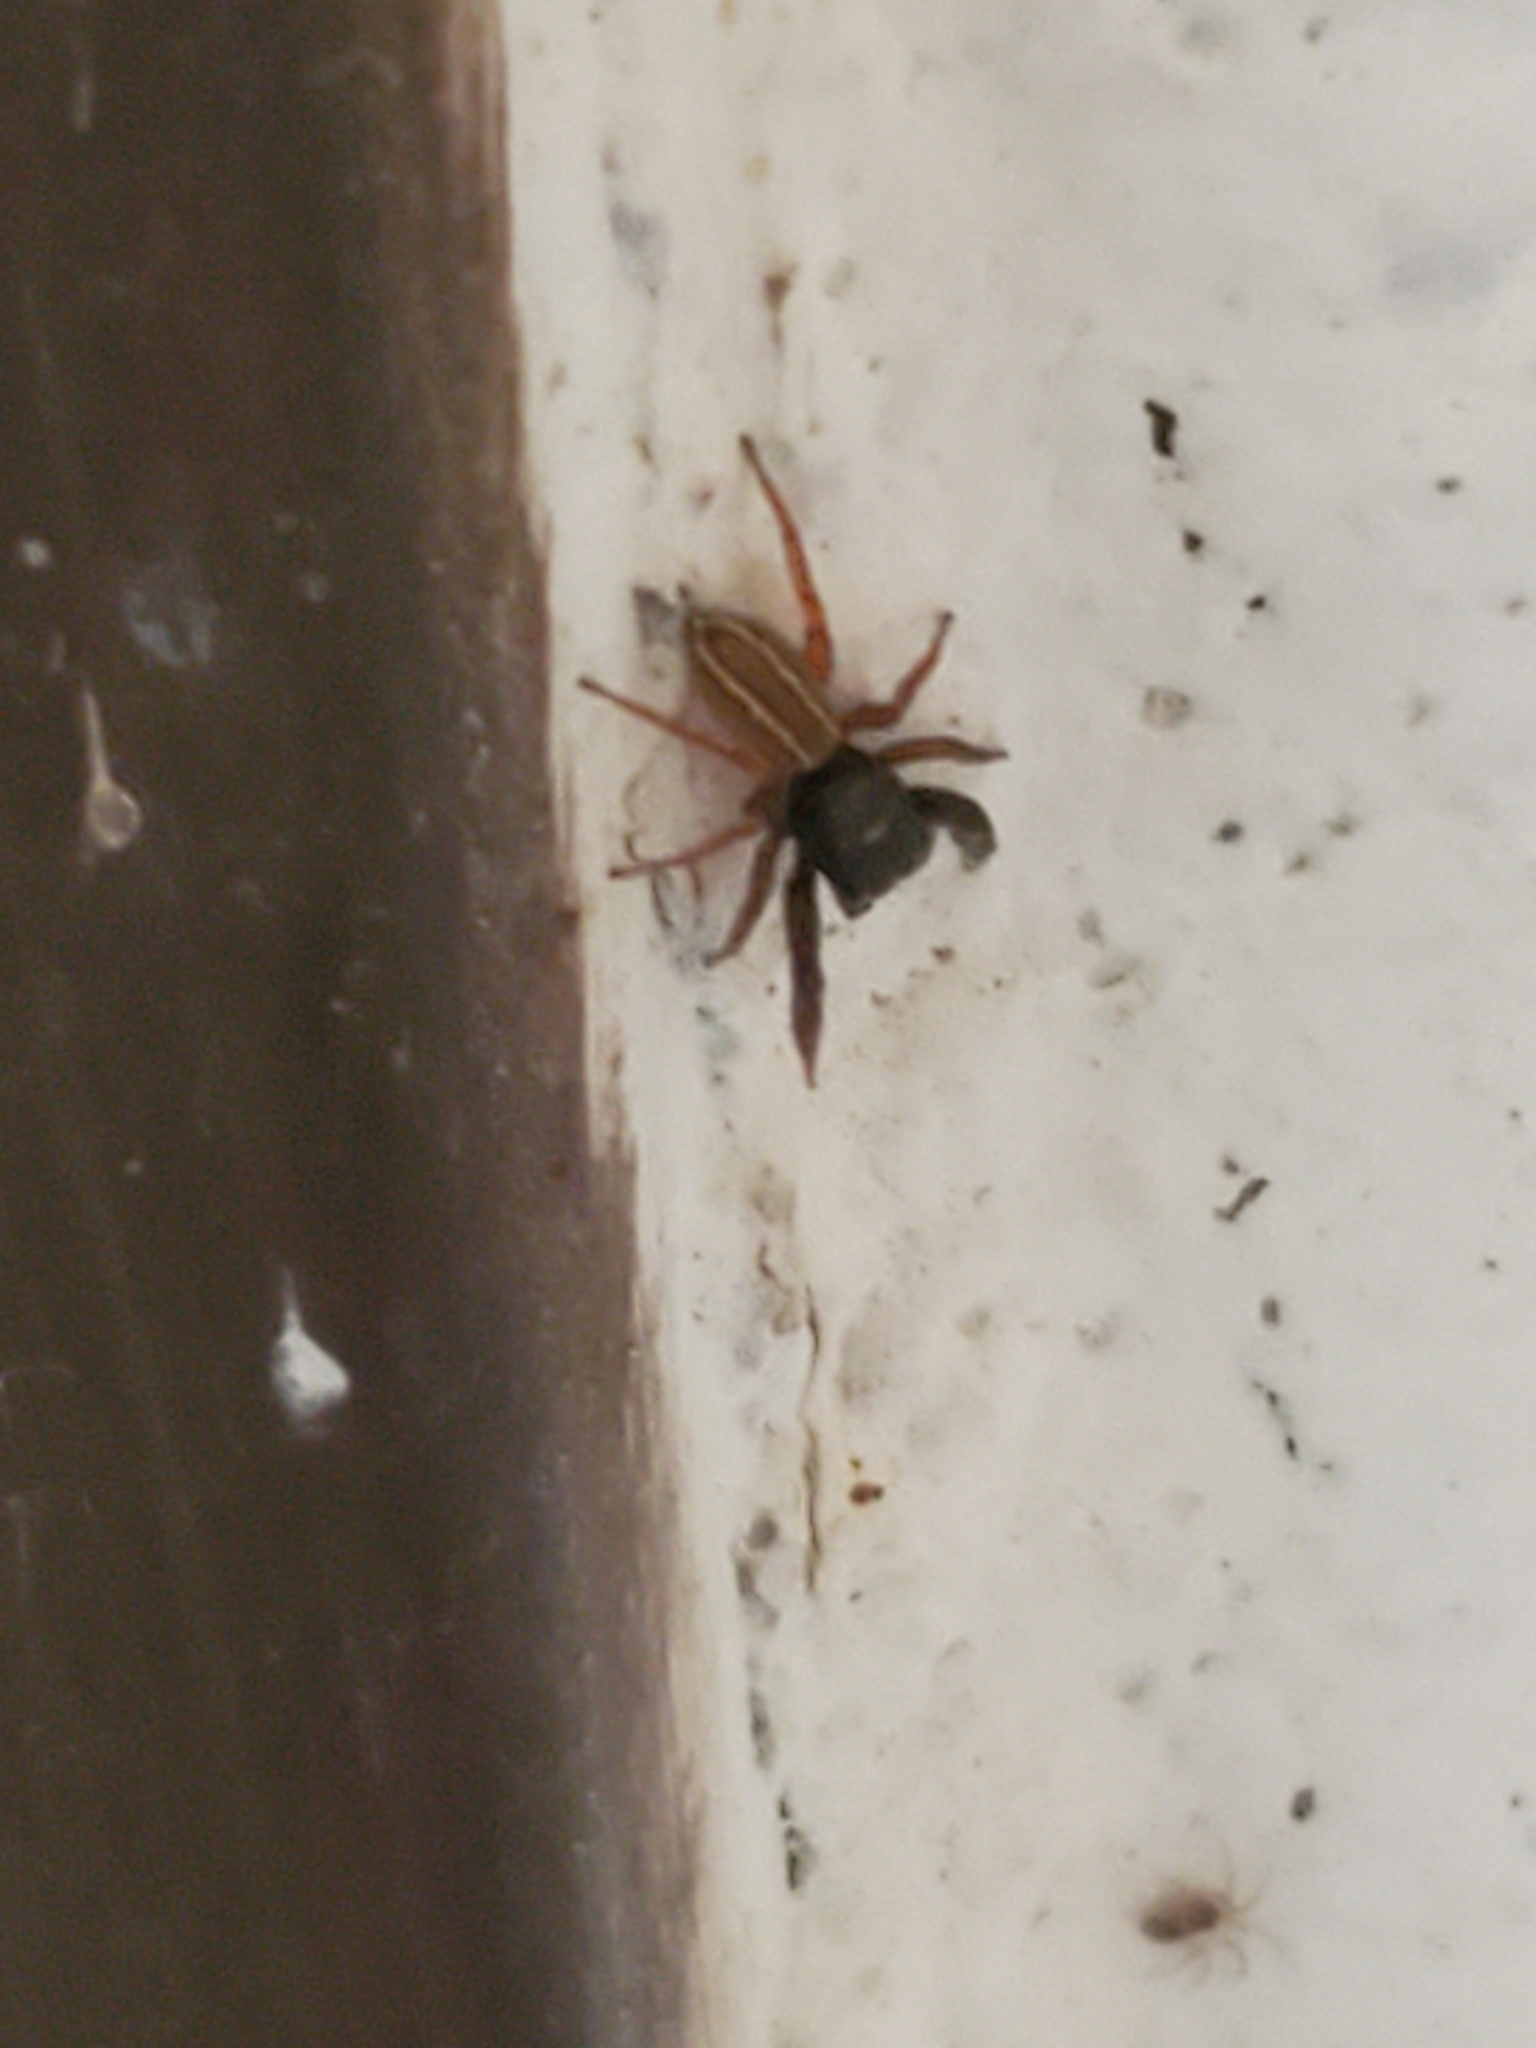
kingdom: Animalia
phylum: Arthropoda
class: Arachnida
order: Araneae
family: Salticidae
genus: Metacyrba
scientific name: Metacyrba taeniola
